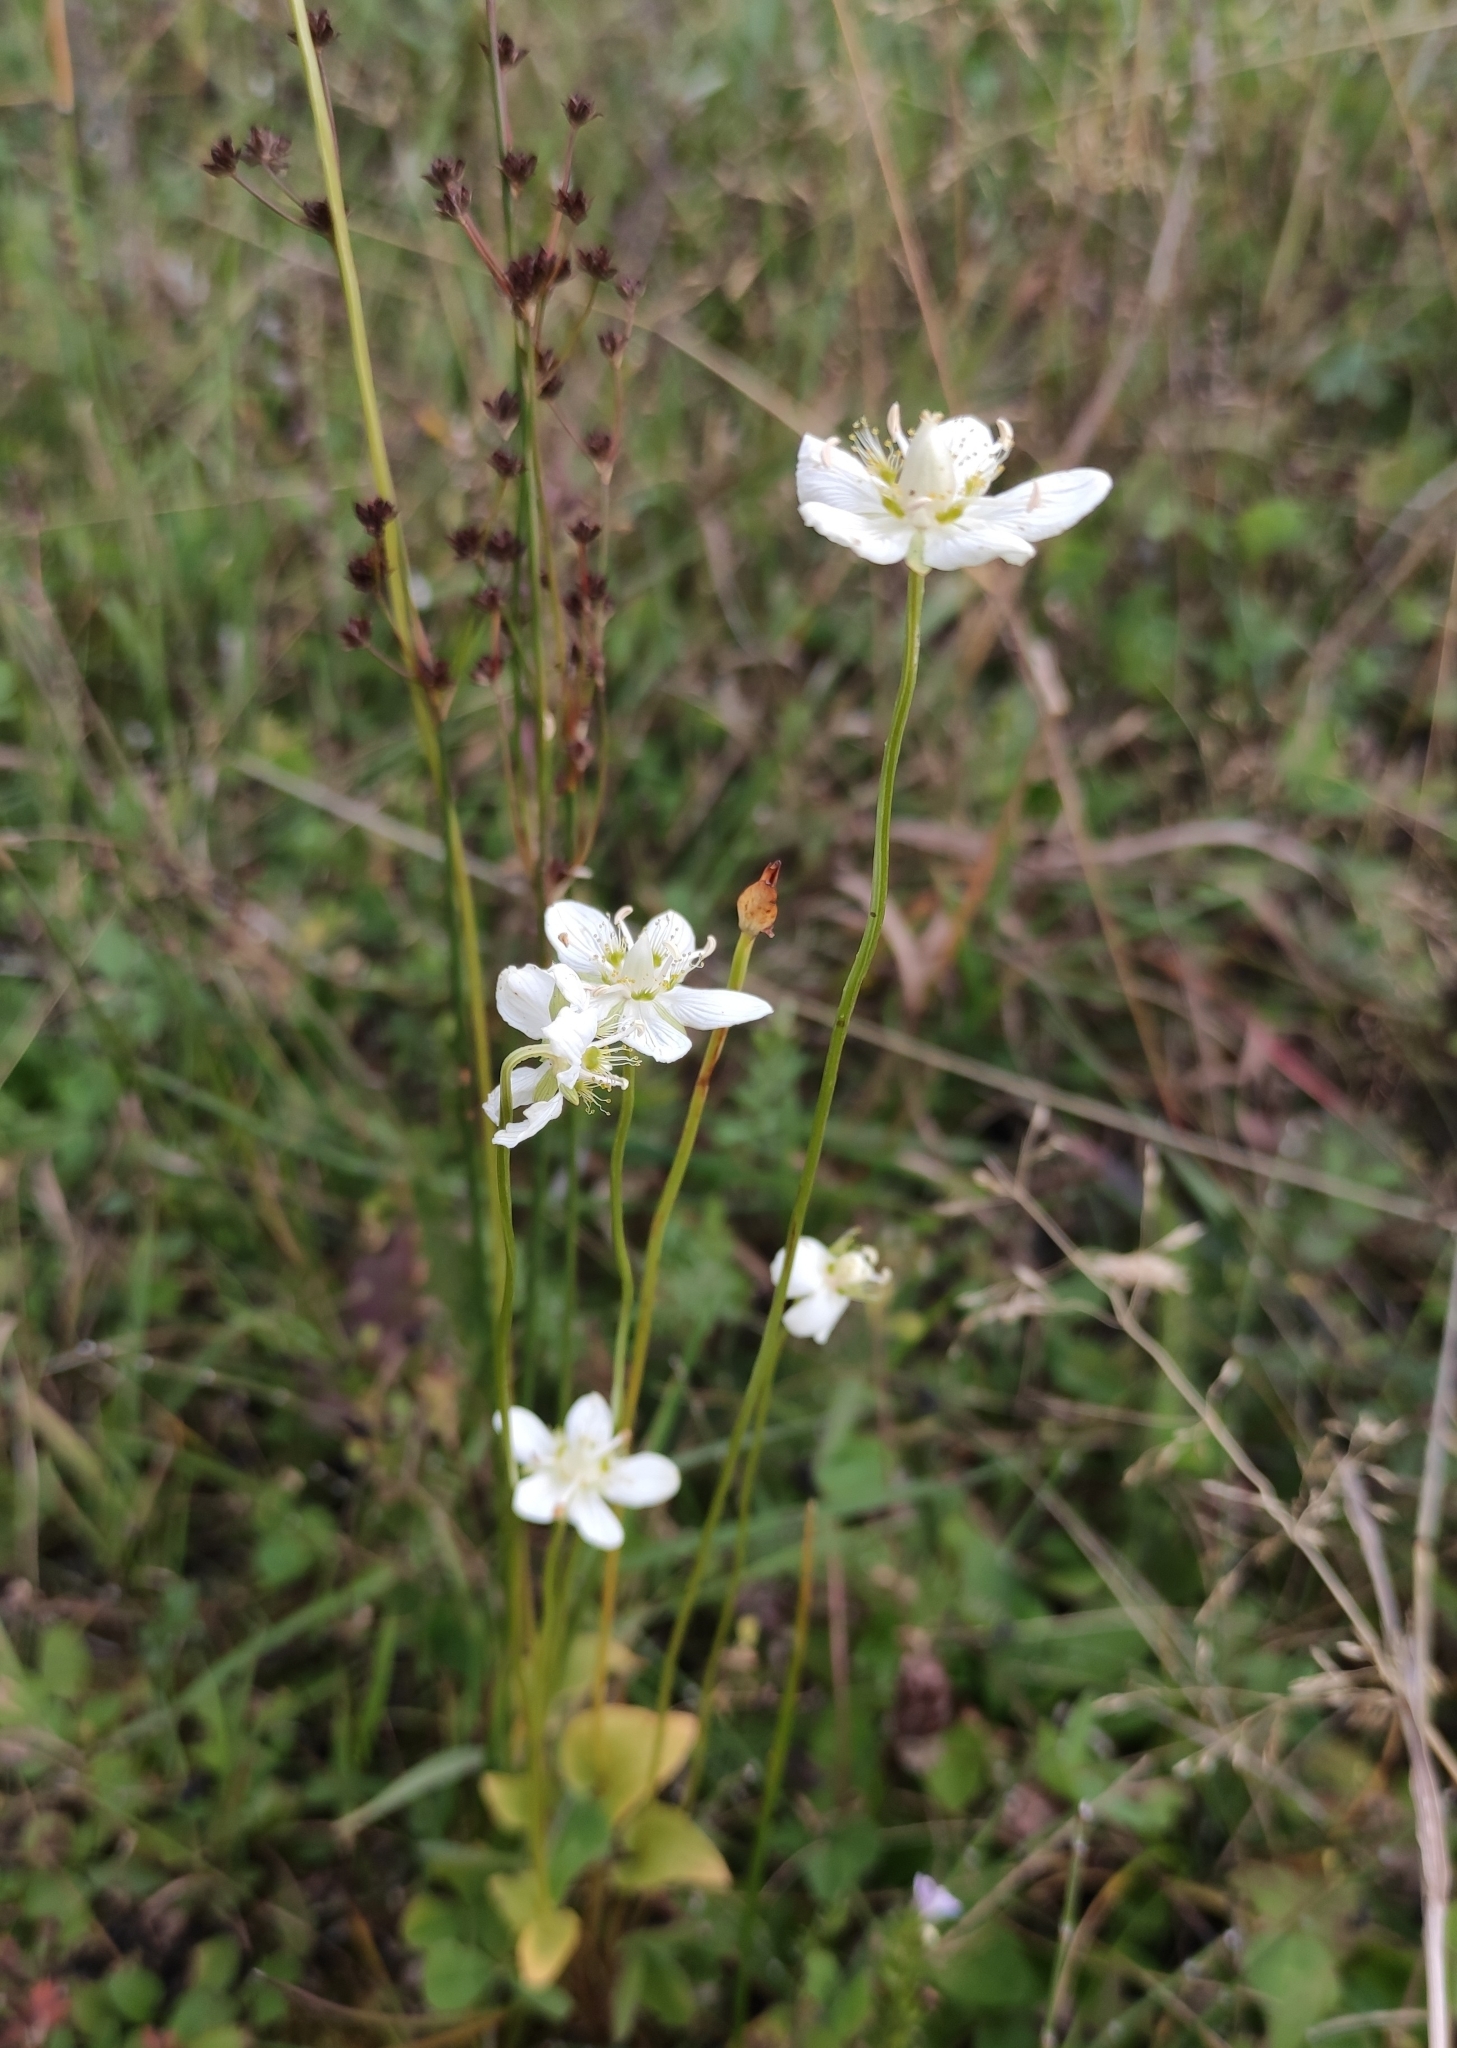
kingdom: Plantae
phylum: Tracheophyta
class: Magnoliopsida
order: Celastrales
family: Parnassiaceae
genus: Parnassia
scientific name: Parnassia palustris
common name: Grass-of-parnassus
